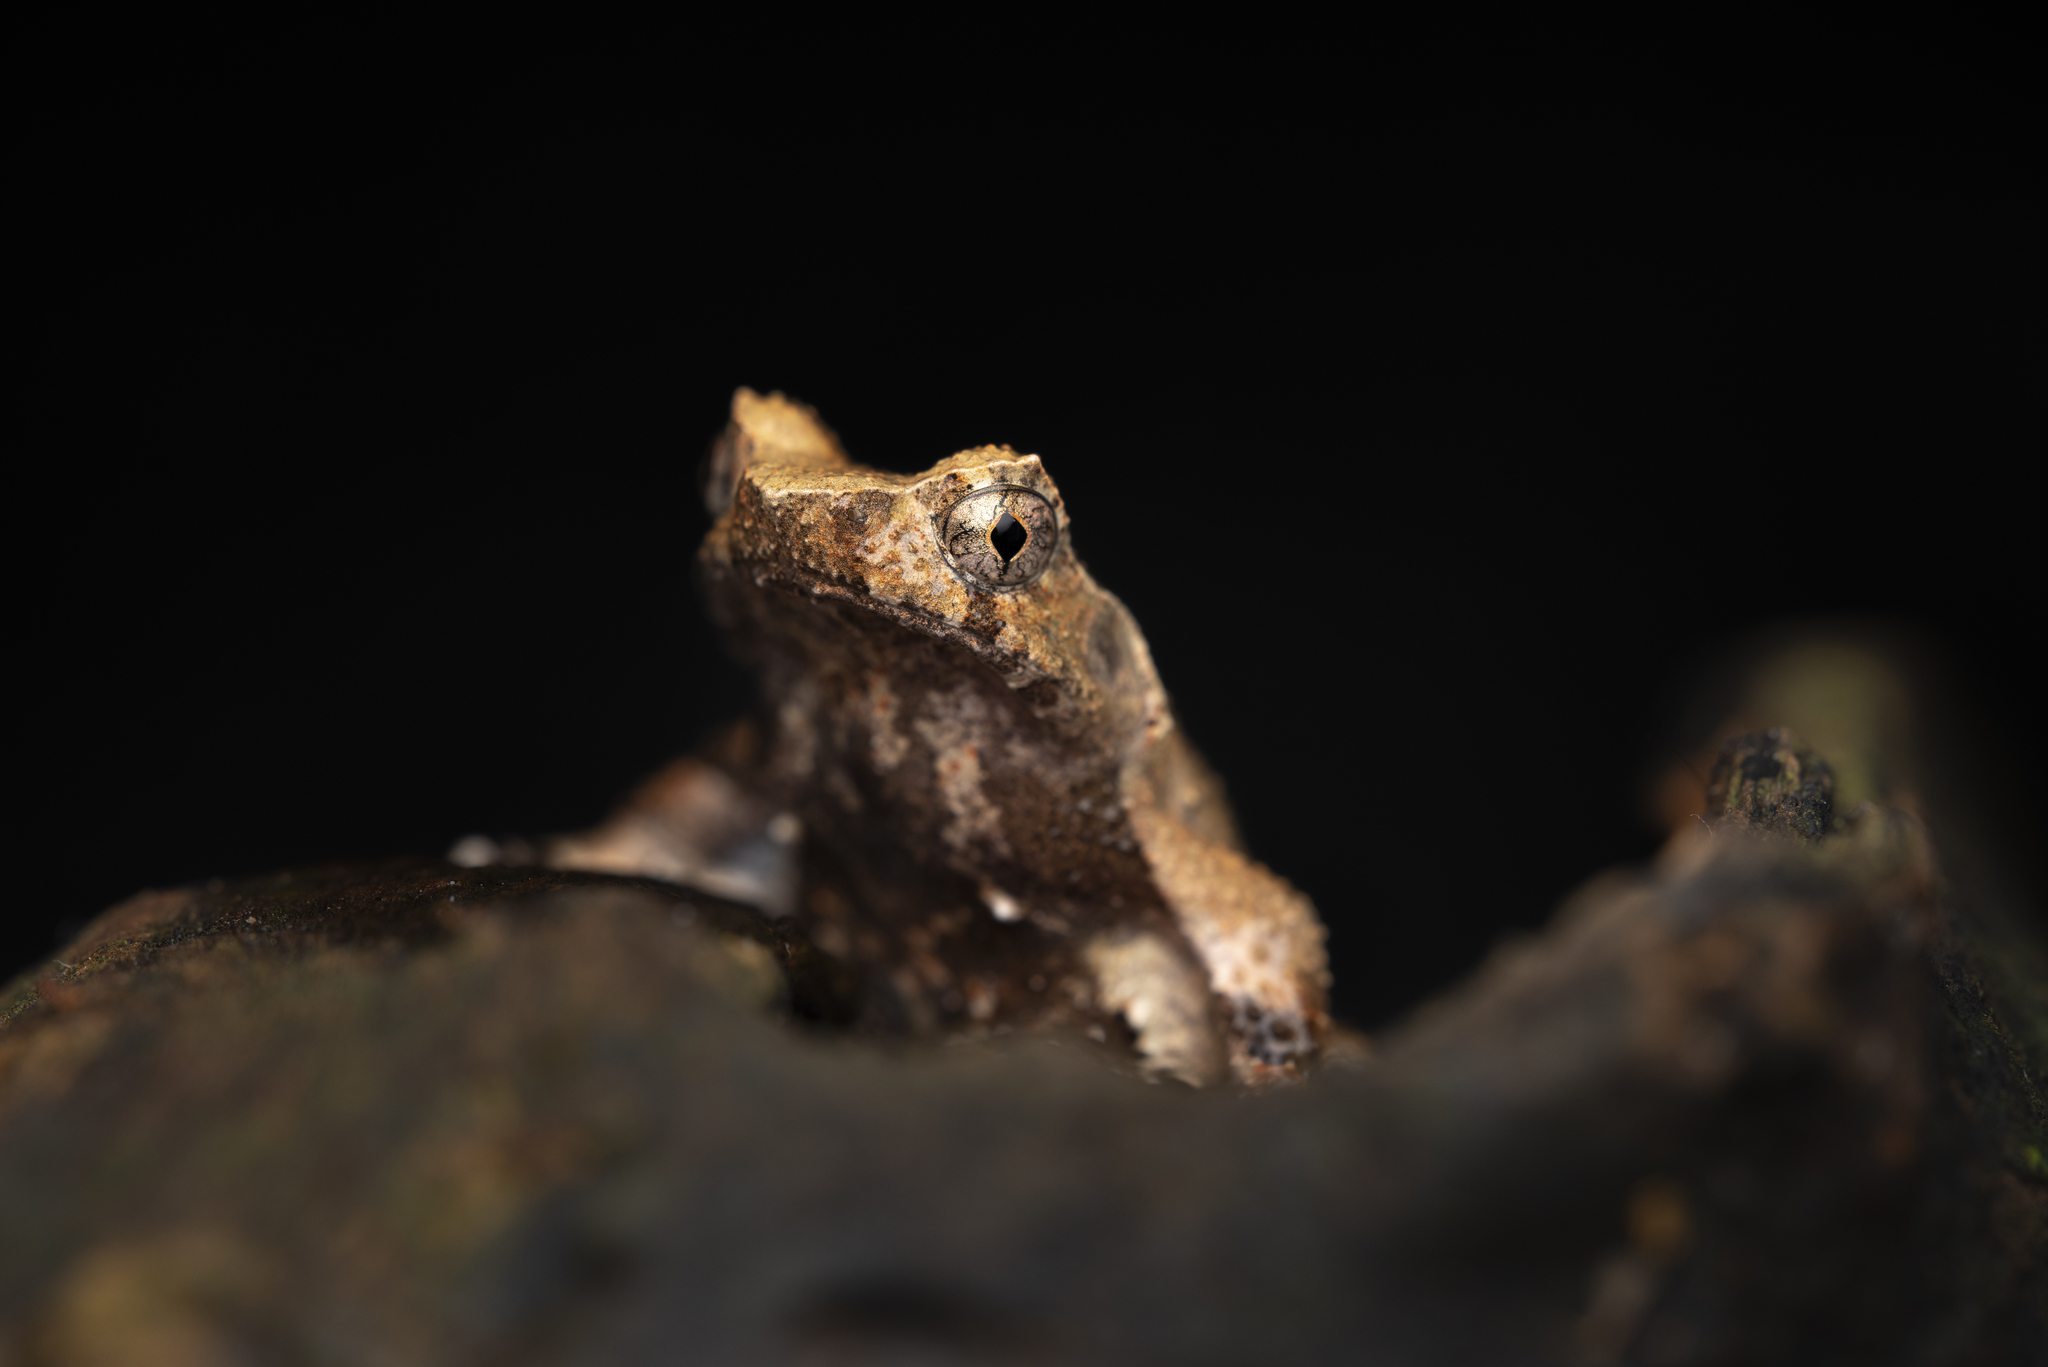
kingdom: Animalia
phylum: Chordata
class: Amphibia
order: Anura
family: Megophryidae
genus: Megophrys
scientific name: Megophrys brachykolos
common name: Short-legged horned toad
